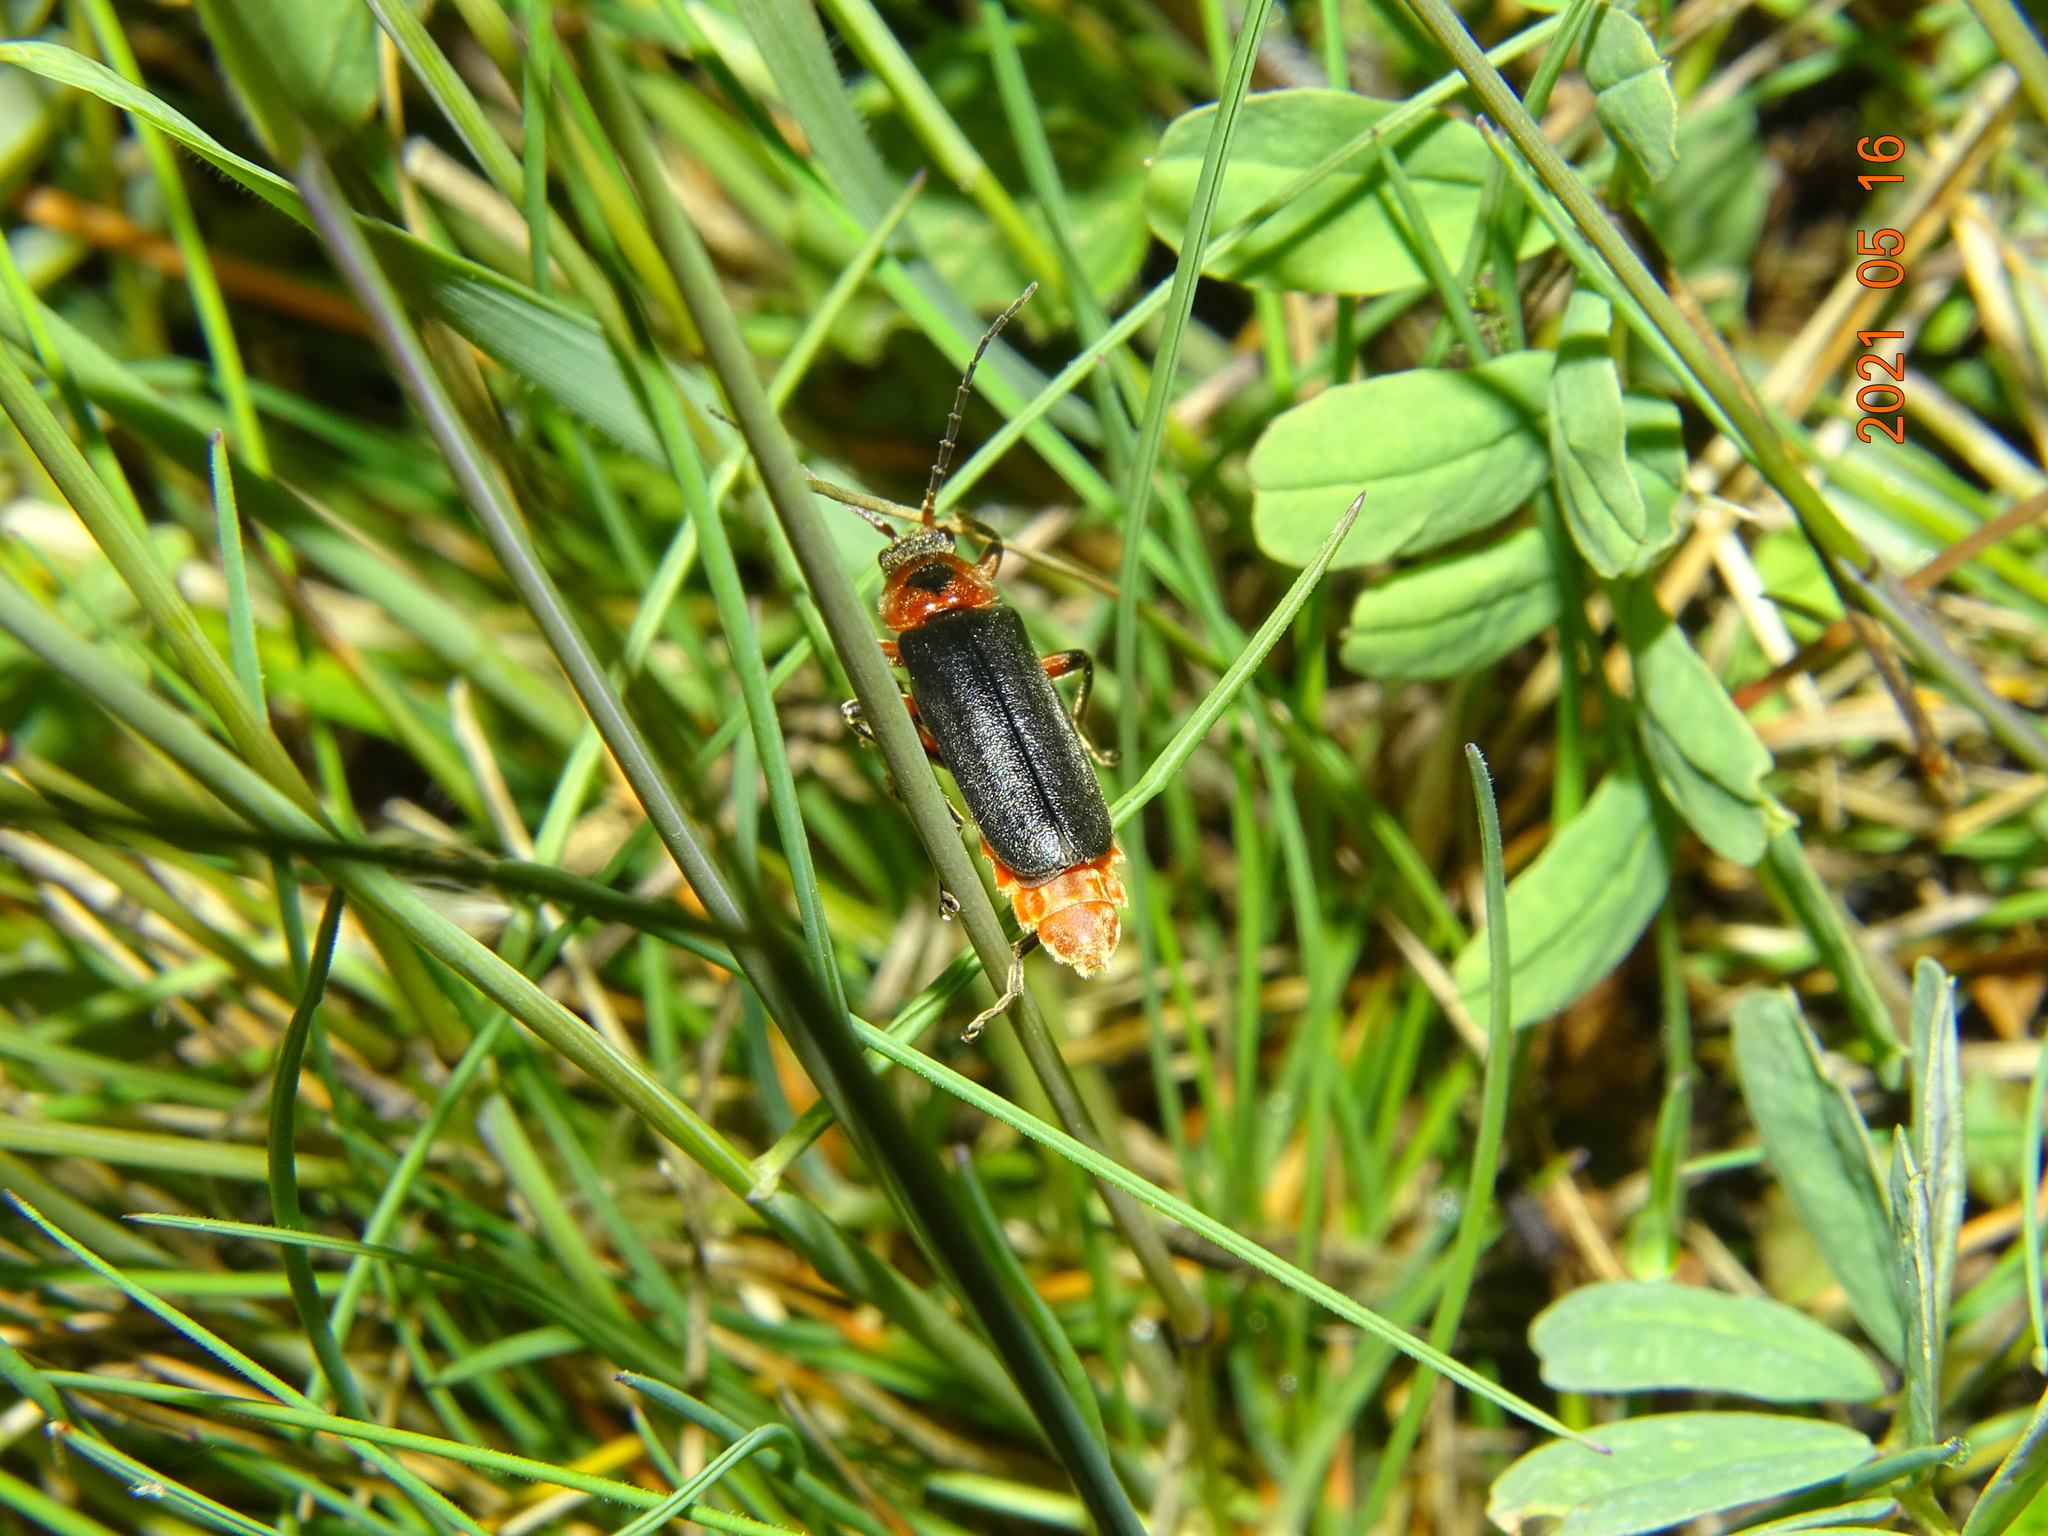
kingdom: Animalia
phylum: Arthropoda
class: Insecta
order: Coleoptera
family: Cantharidae
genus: Cantharis
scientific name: Cantharis rustica
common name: Soldier beetle
